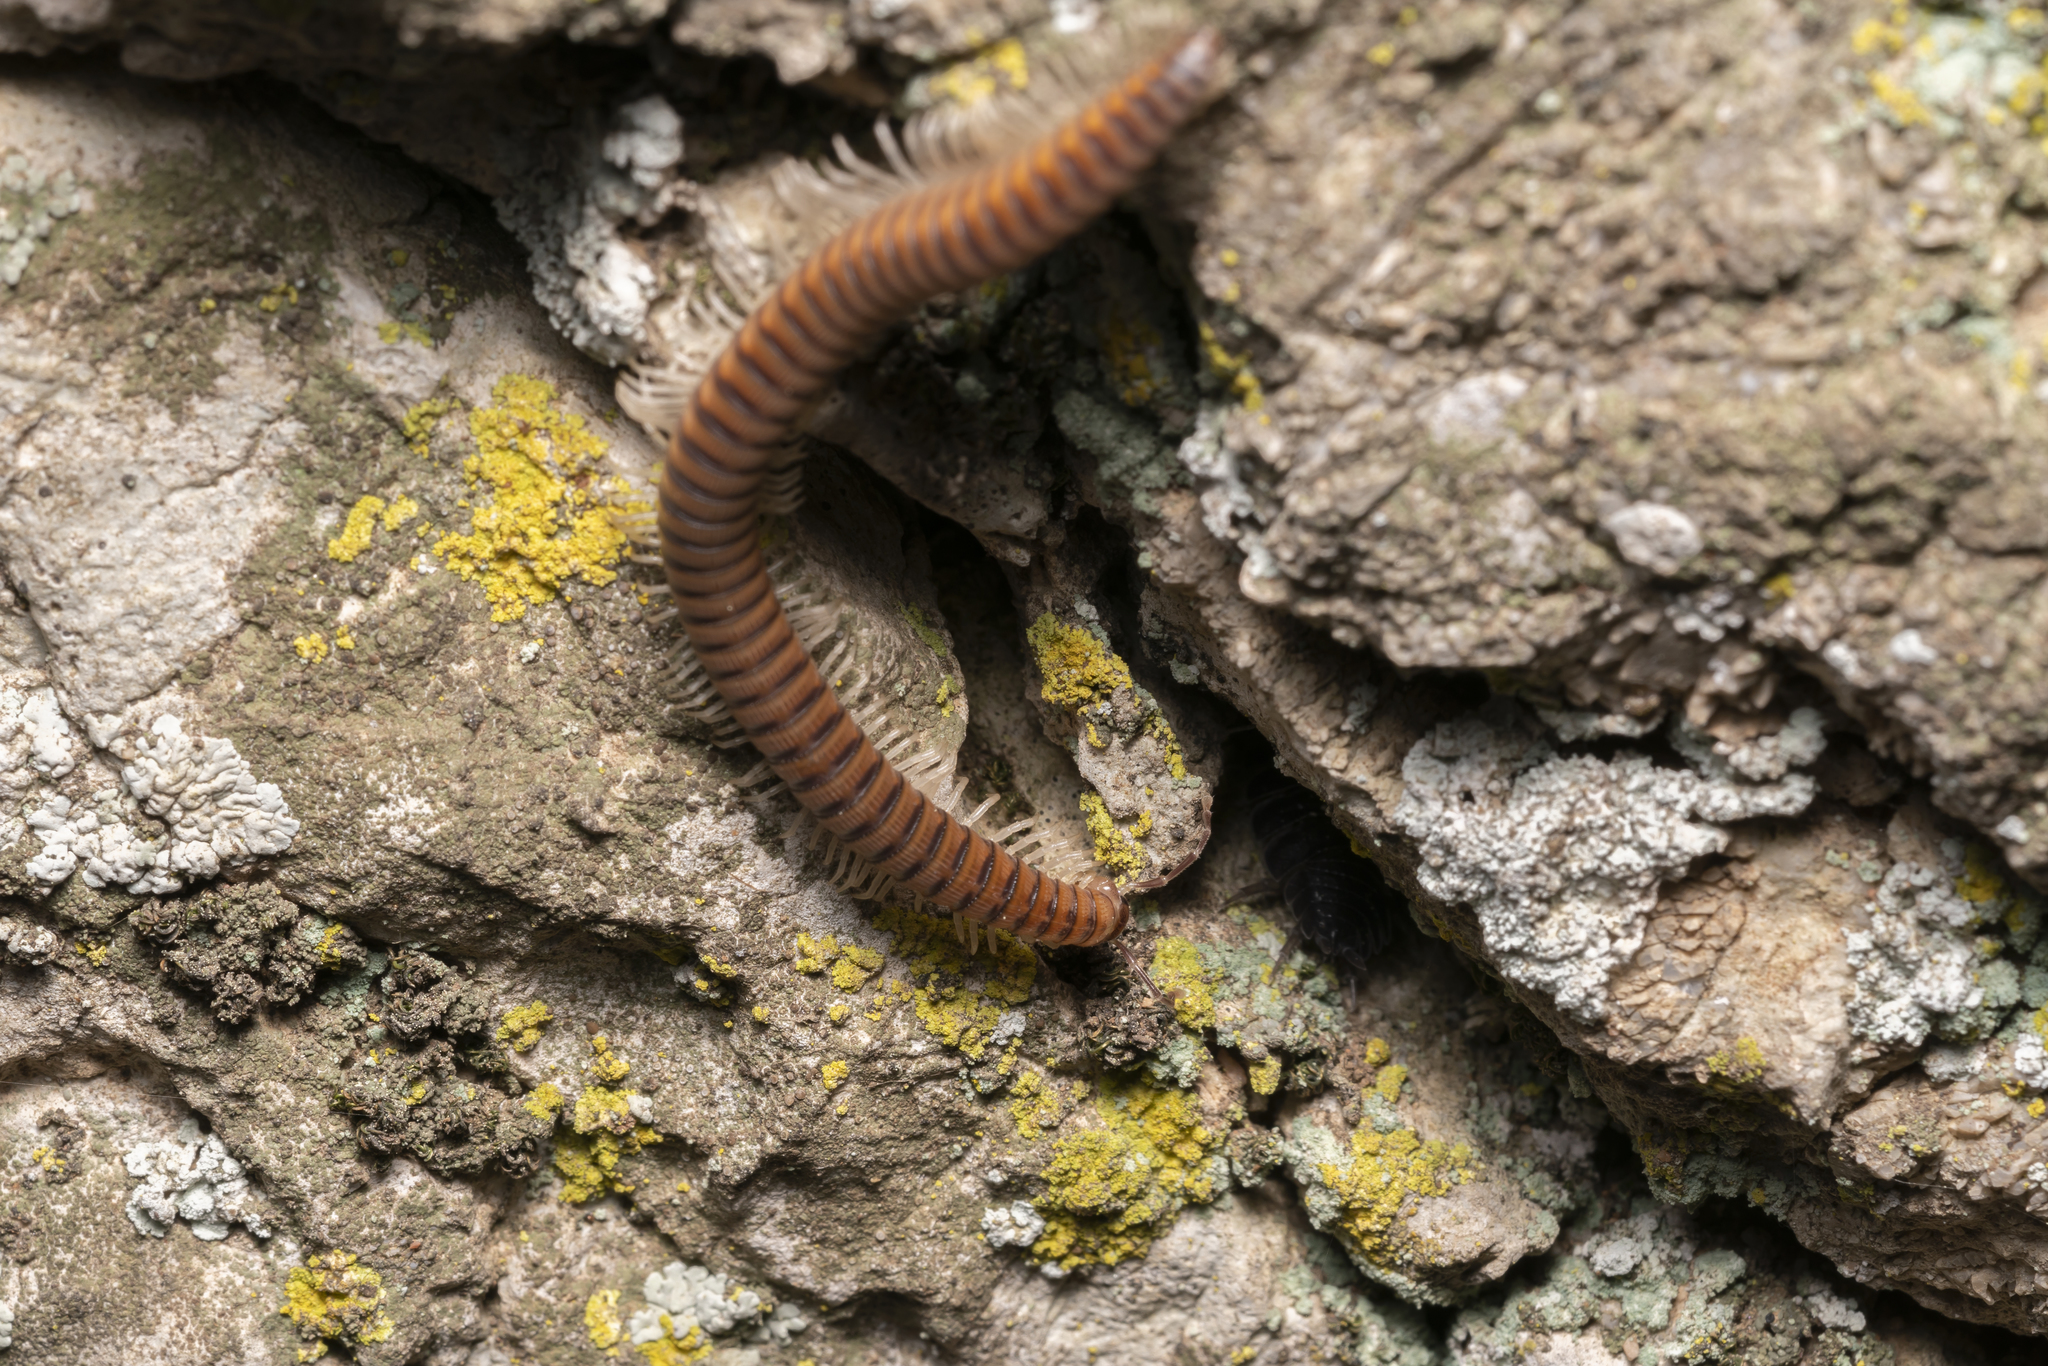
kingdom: Animalia
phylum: Arthropoda
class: Diplopoda
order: Callipodida
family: Schizopetalidae
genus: Eurygyrus
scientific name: Eurygyrus rhodius
